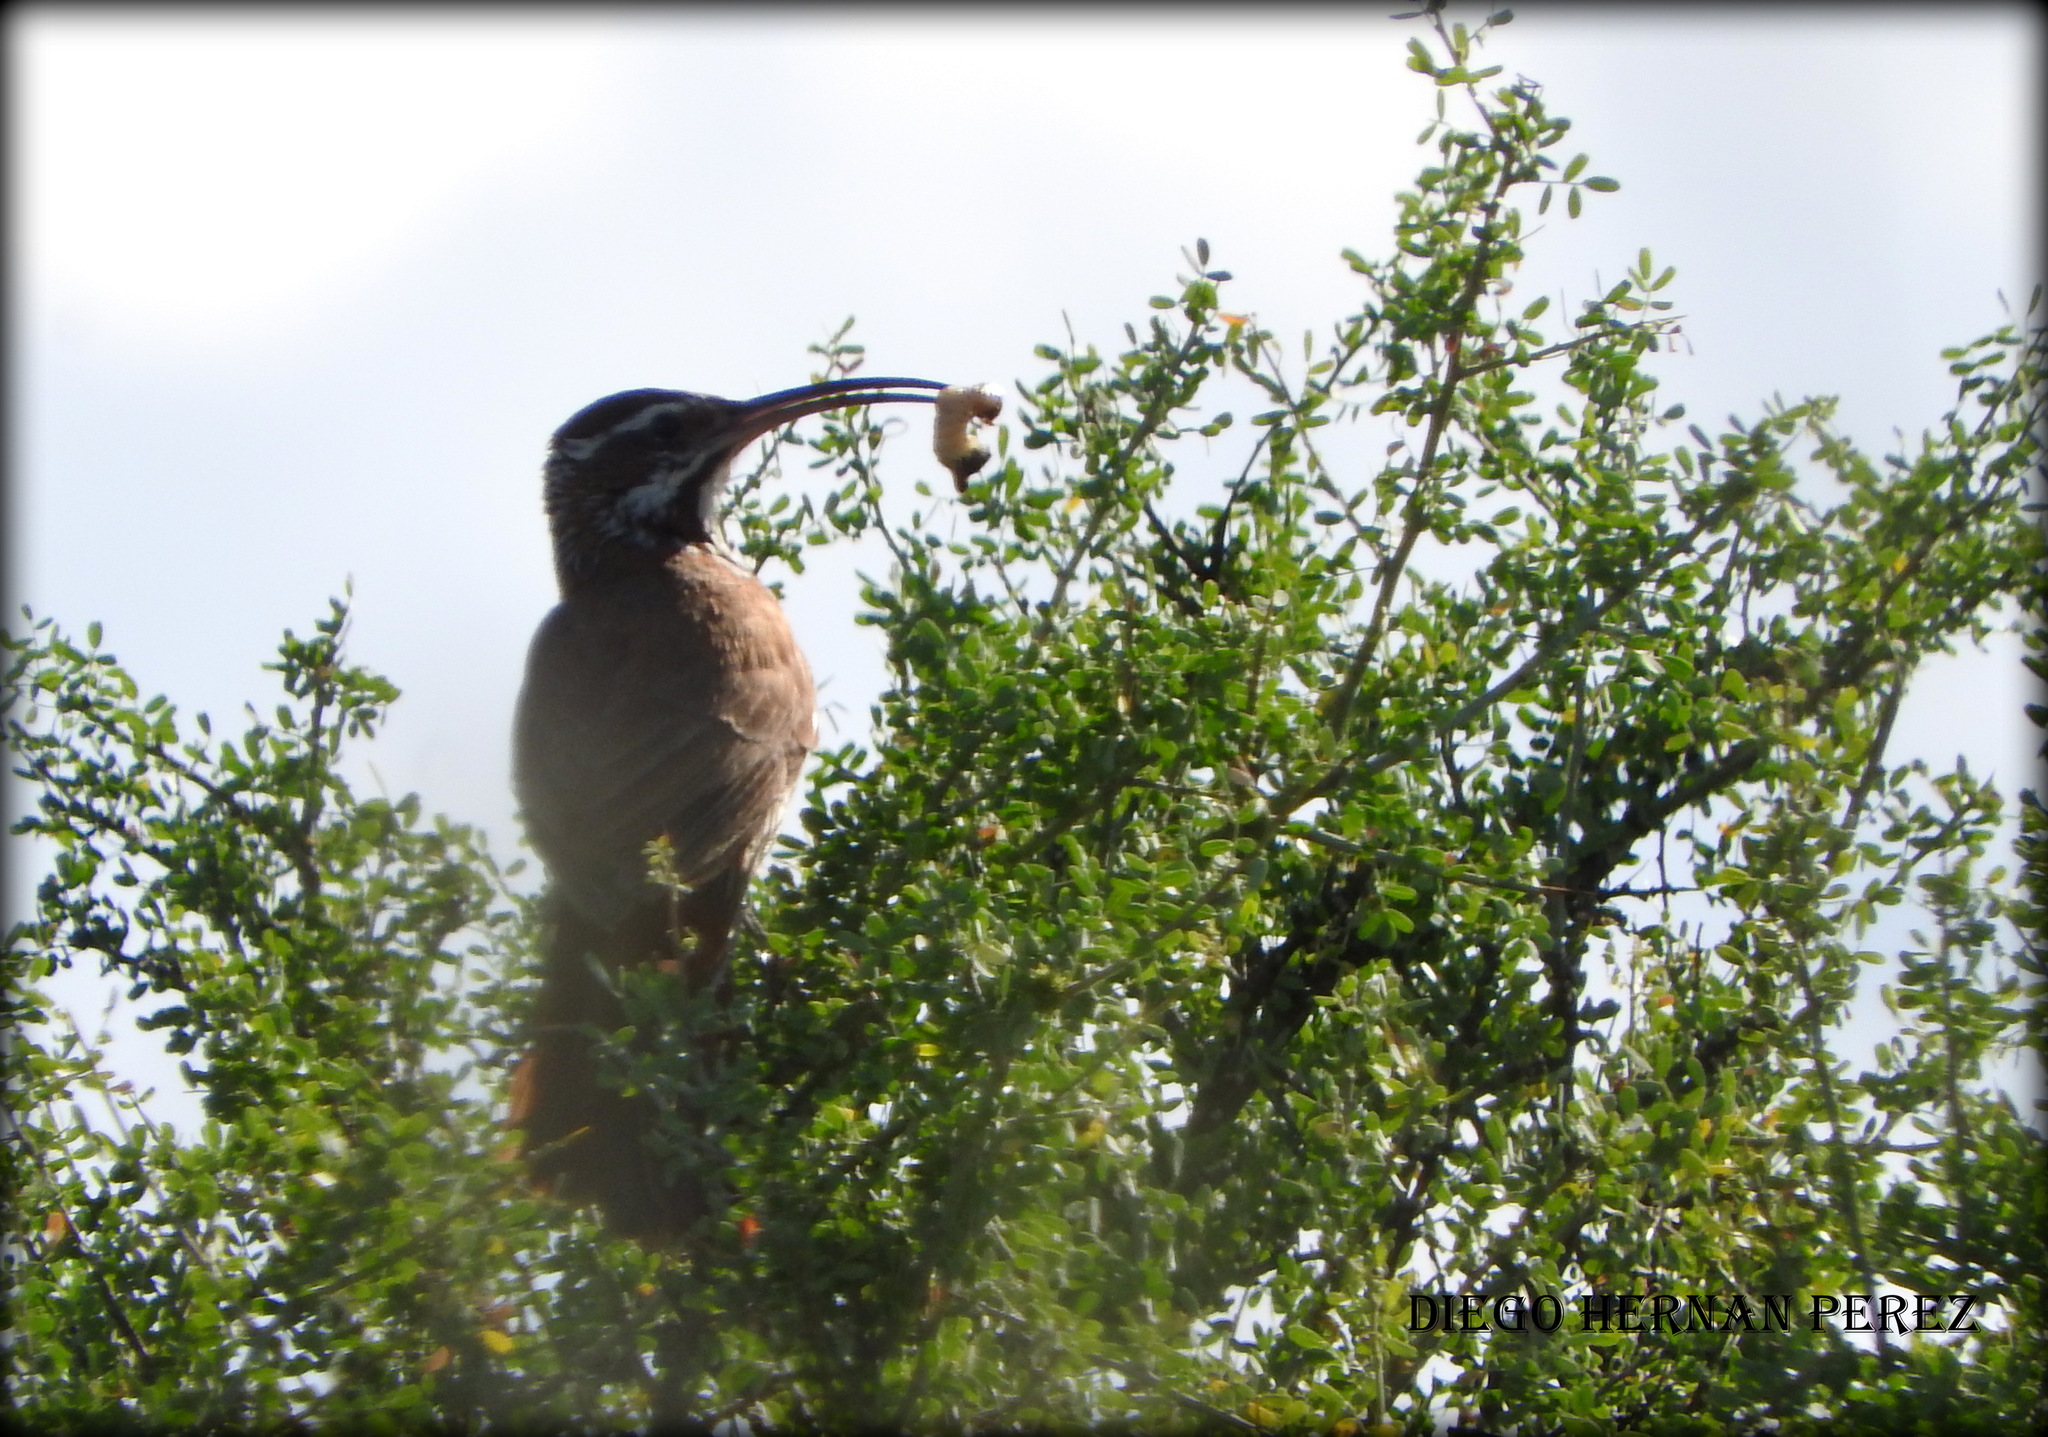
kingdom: Animalia
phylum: Chordata
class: Aves
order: Passeriformes
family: Furnariidae
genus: Drymornis
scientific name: Drymornis bridgesii
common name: Scimitar-billed woodcreeper
